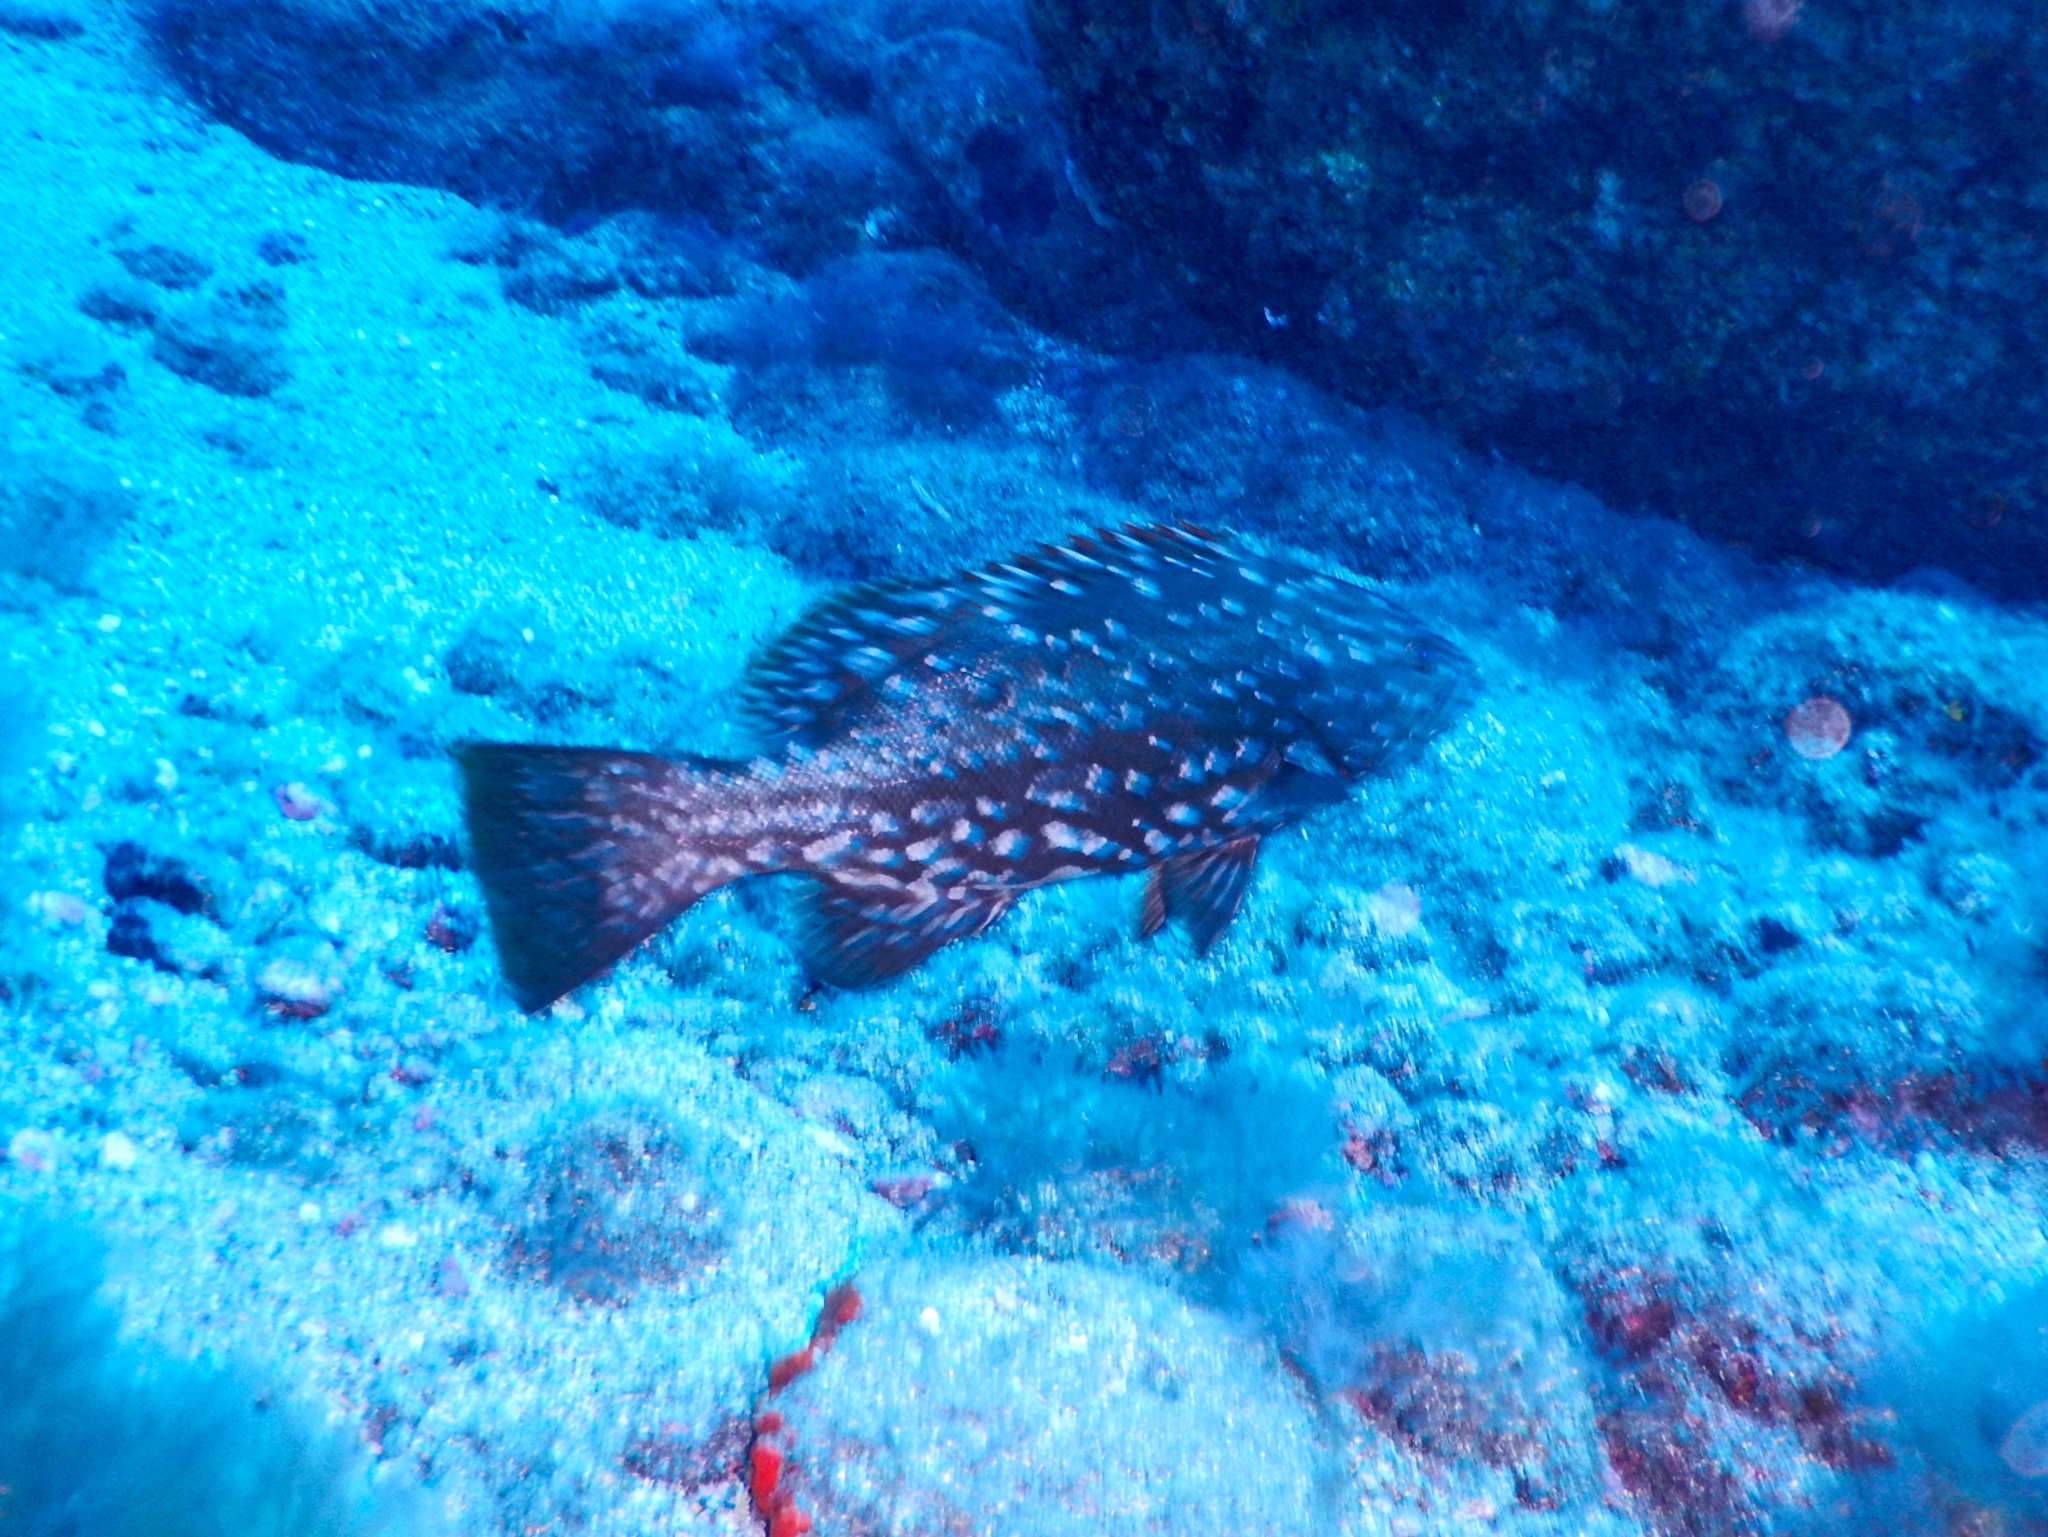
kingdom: Animalia
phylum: Chordata
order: Perciformes
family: Serranidae
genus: Mycteroperca
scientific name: Mycteroperca fusca
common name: Island grouper
